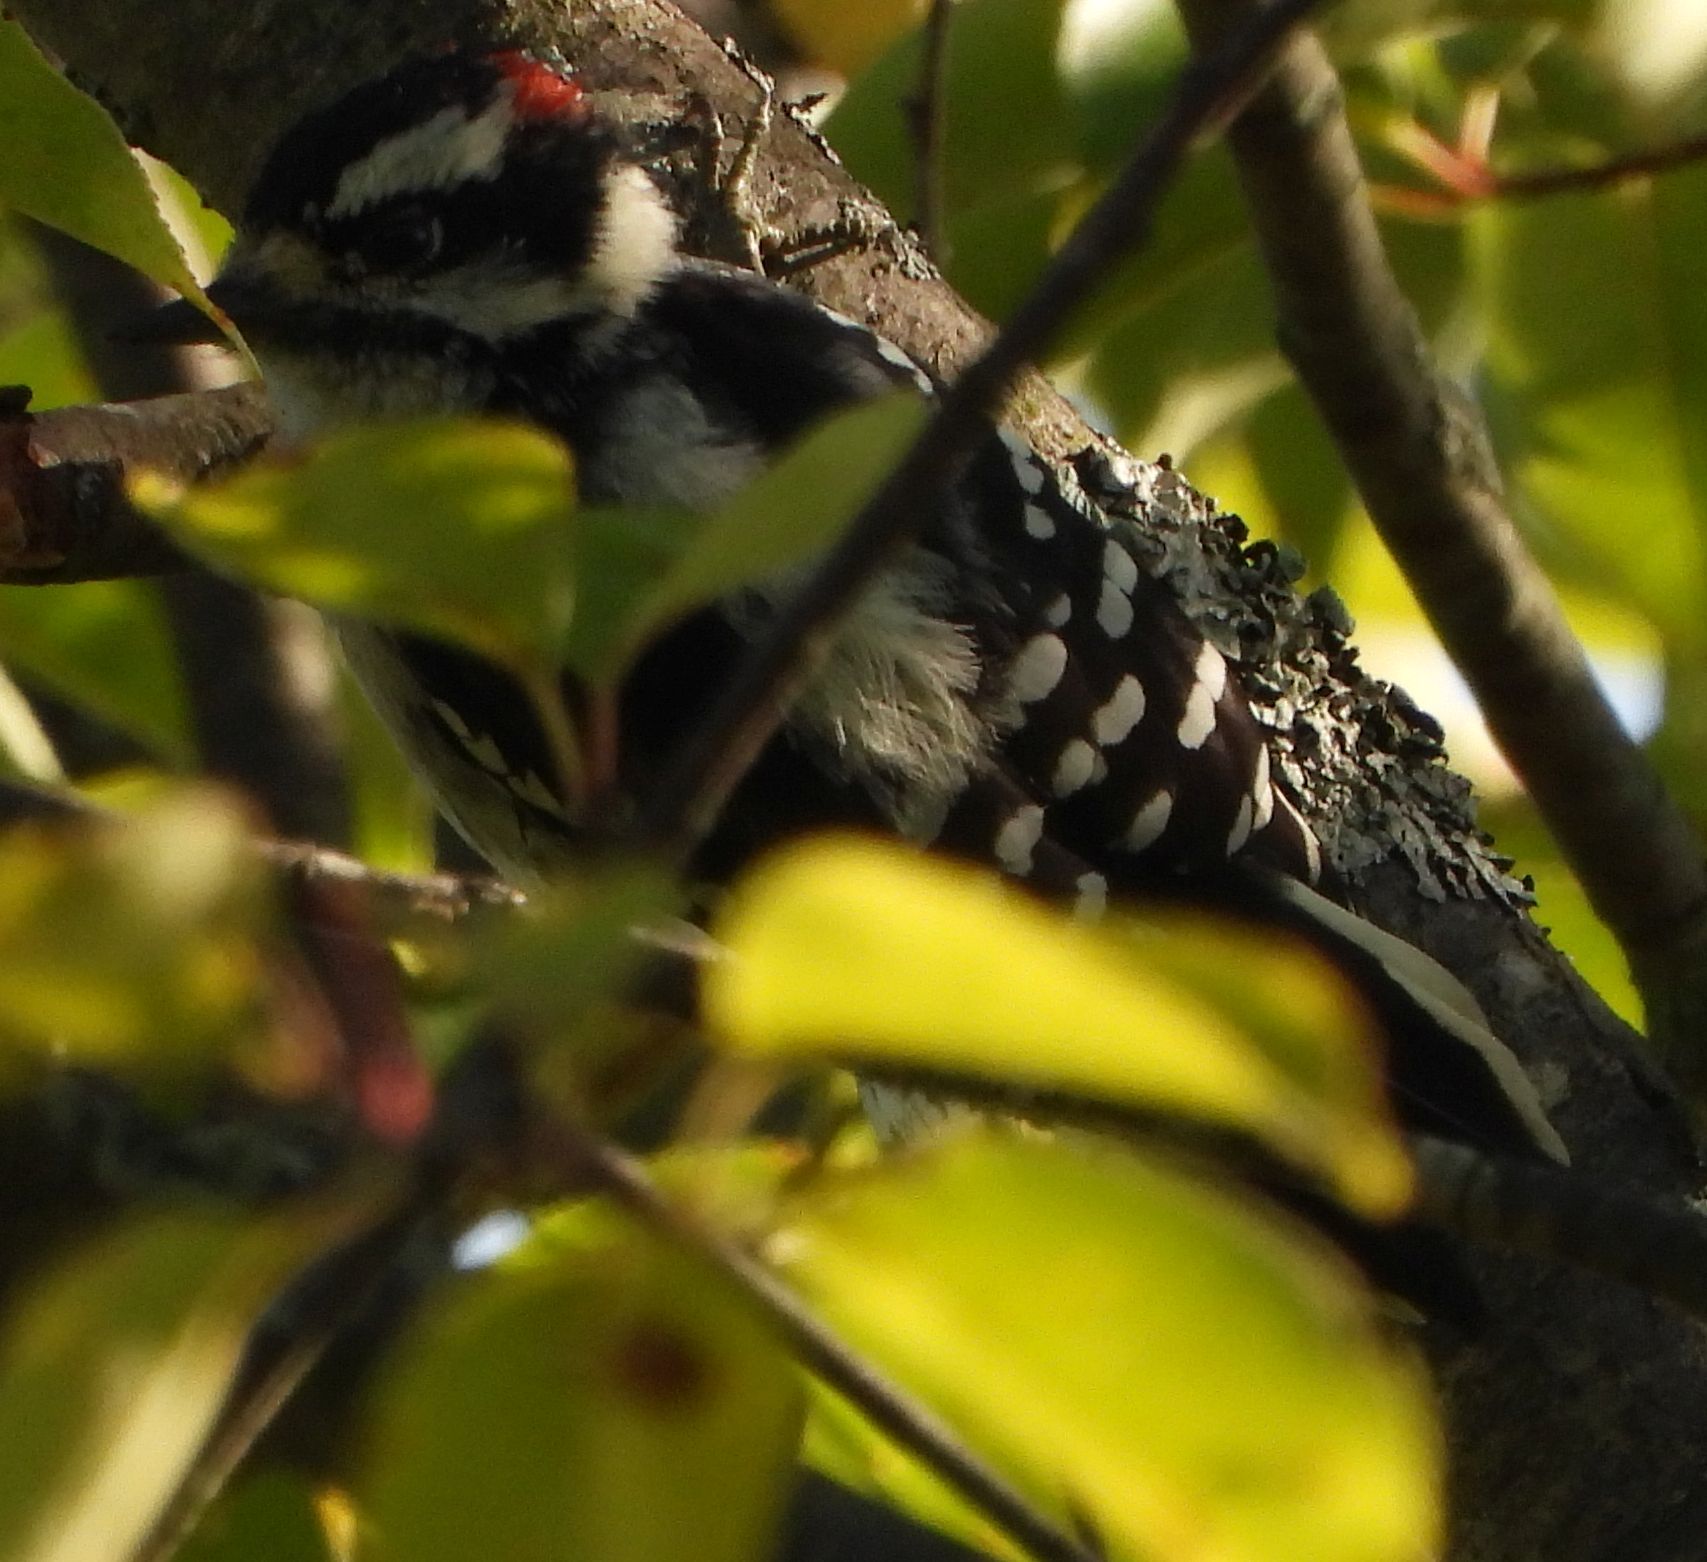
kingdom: Animalia
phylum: Chordata
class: Aves
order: Piciformes
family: Picidae
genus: Dryobates
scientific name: Dryobates pubescens
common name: Downy woodpecker
